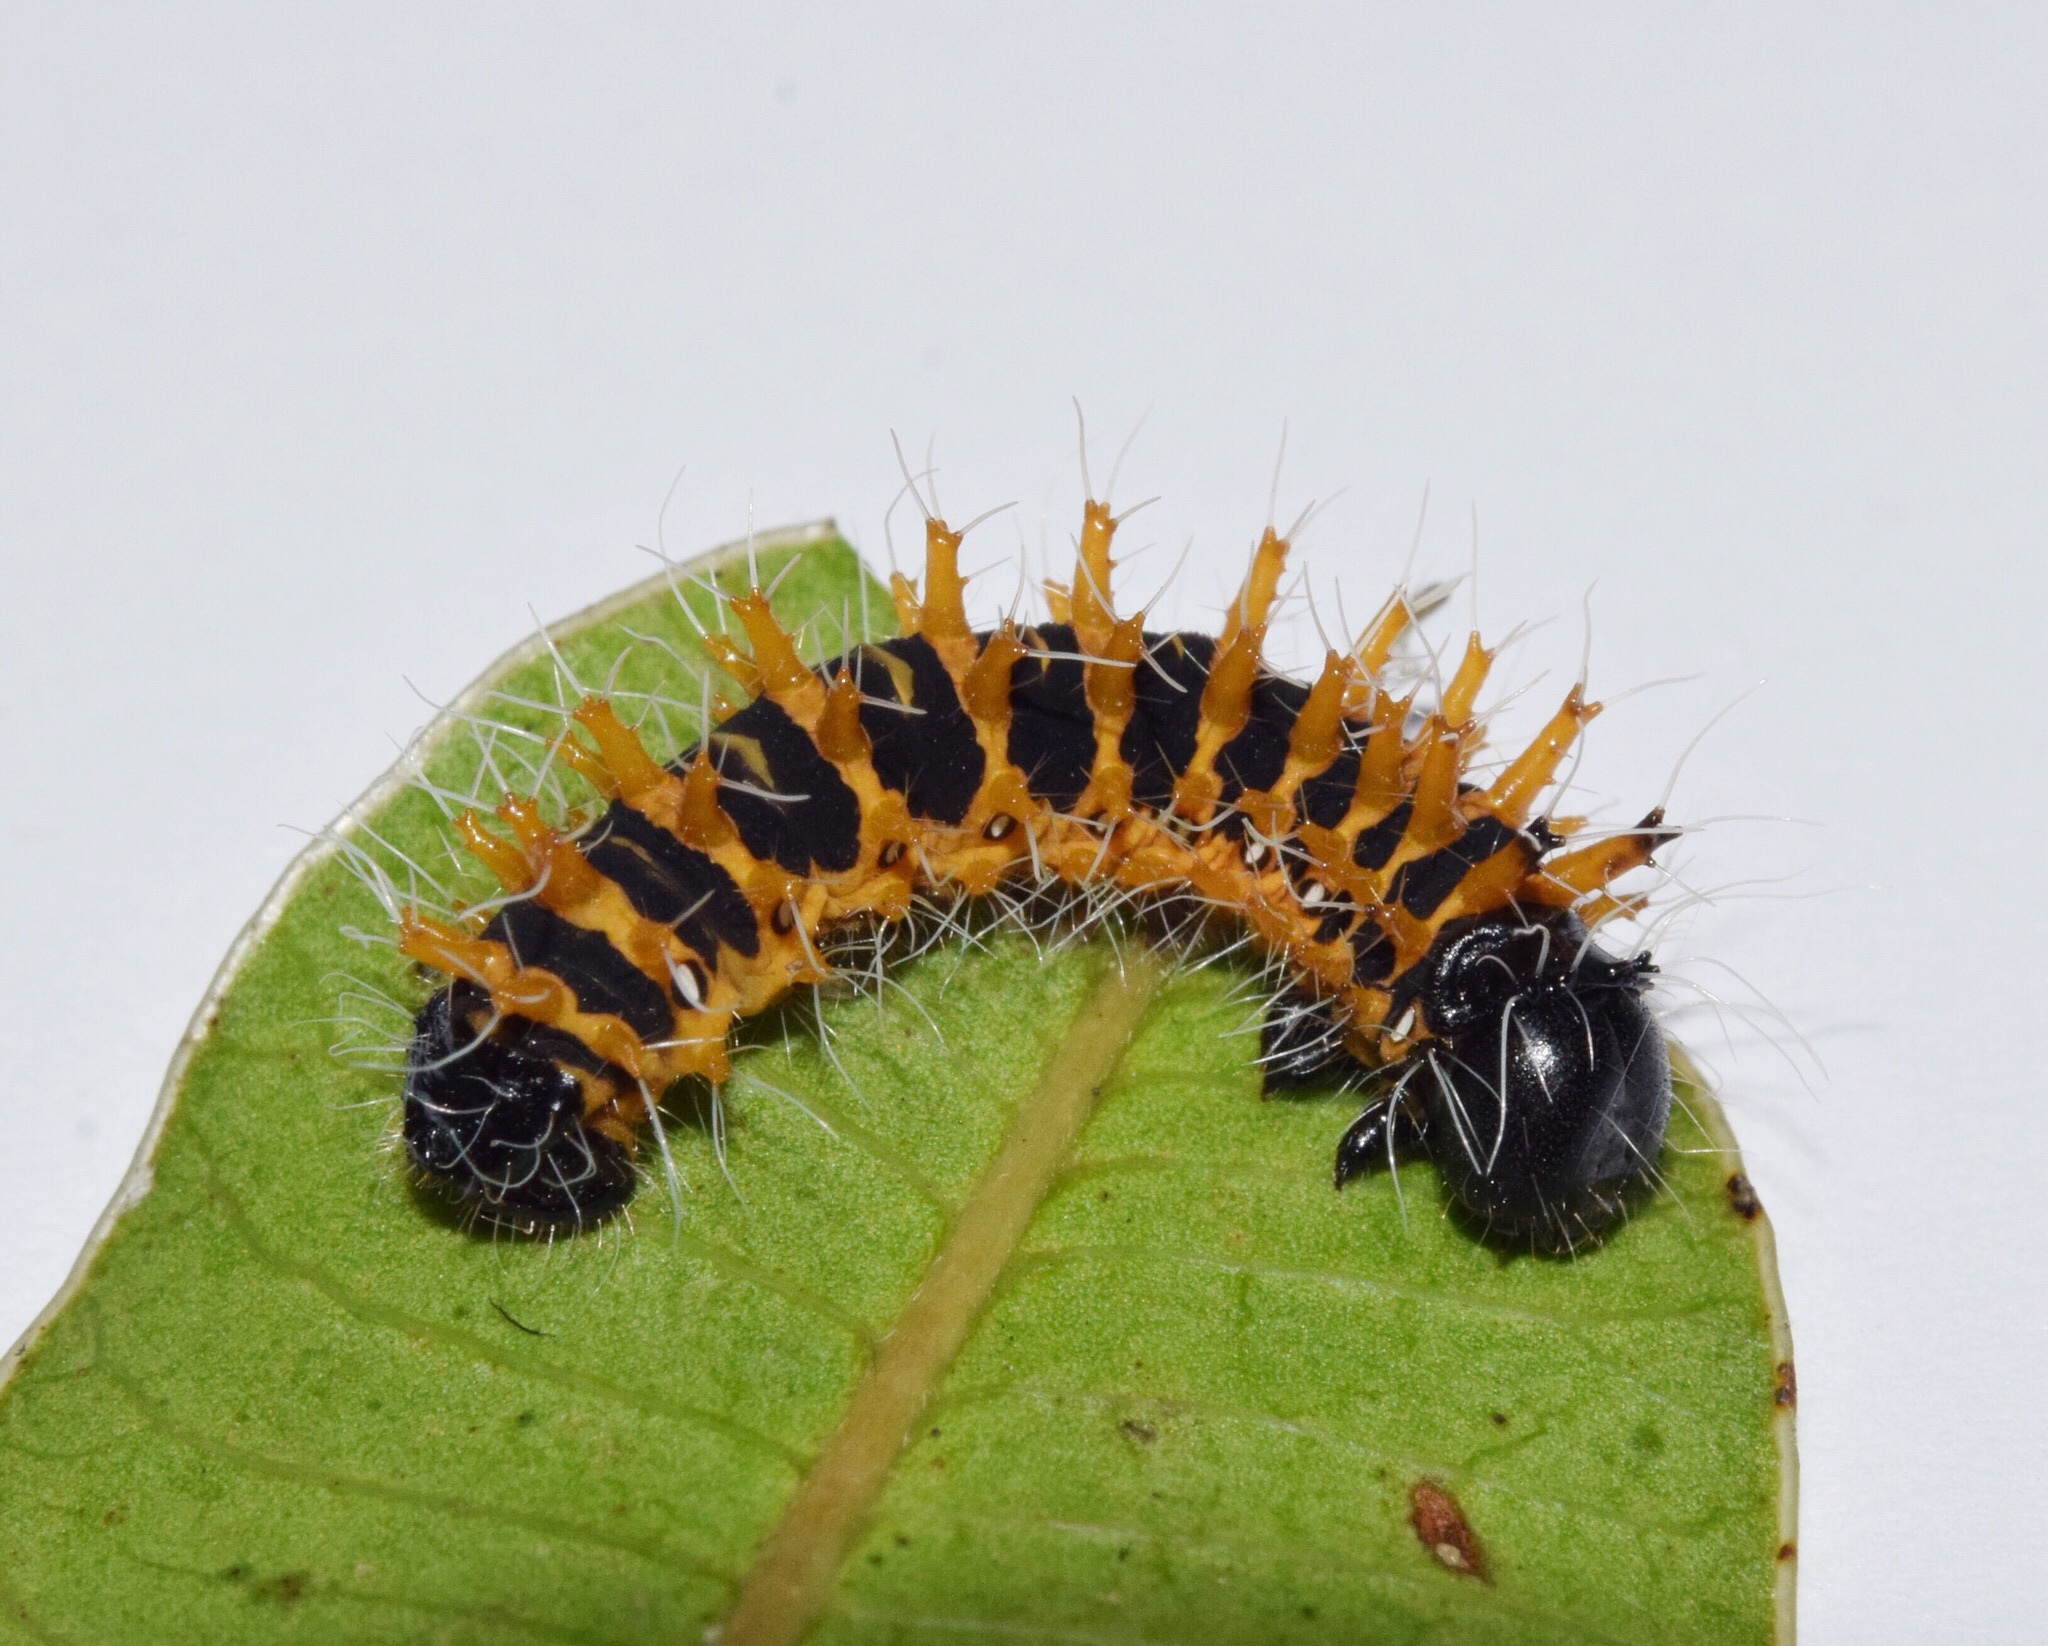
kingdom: Animalia
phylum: Arthropoda
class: Insecta
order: Lepidoptera
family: Saturniidae
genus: Nudaurelia
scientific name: Nudaurelia wahlbergi
